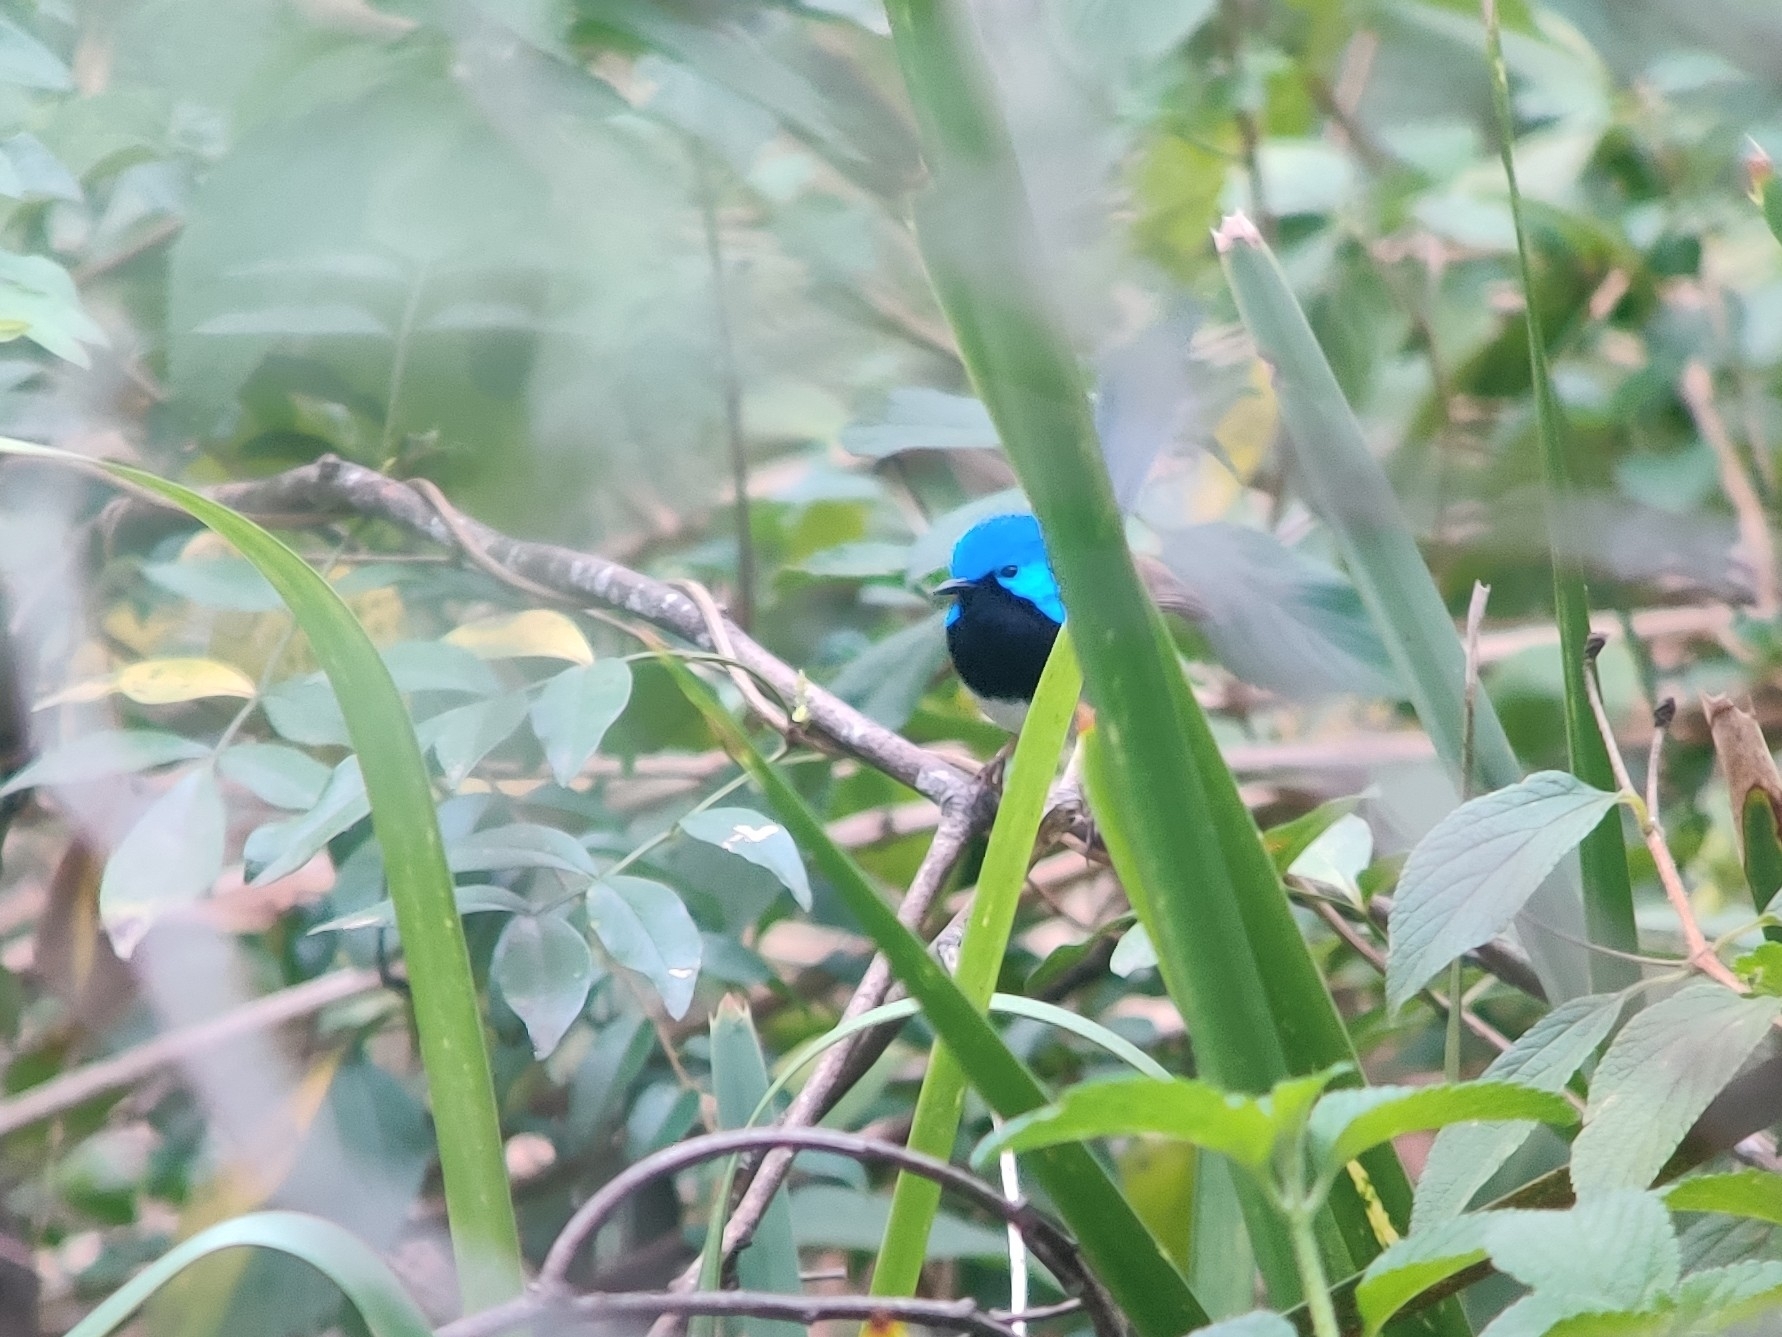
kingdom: Animalia
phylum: Chordata
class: Aves
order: Passeriformes
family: Maluridae
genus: Malurus
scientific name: Malurus lamberti
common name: Variegated fairywren
